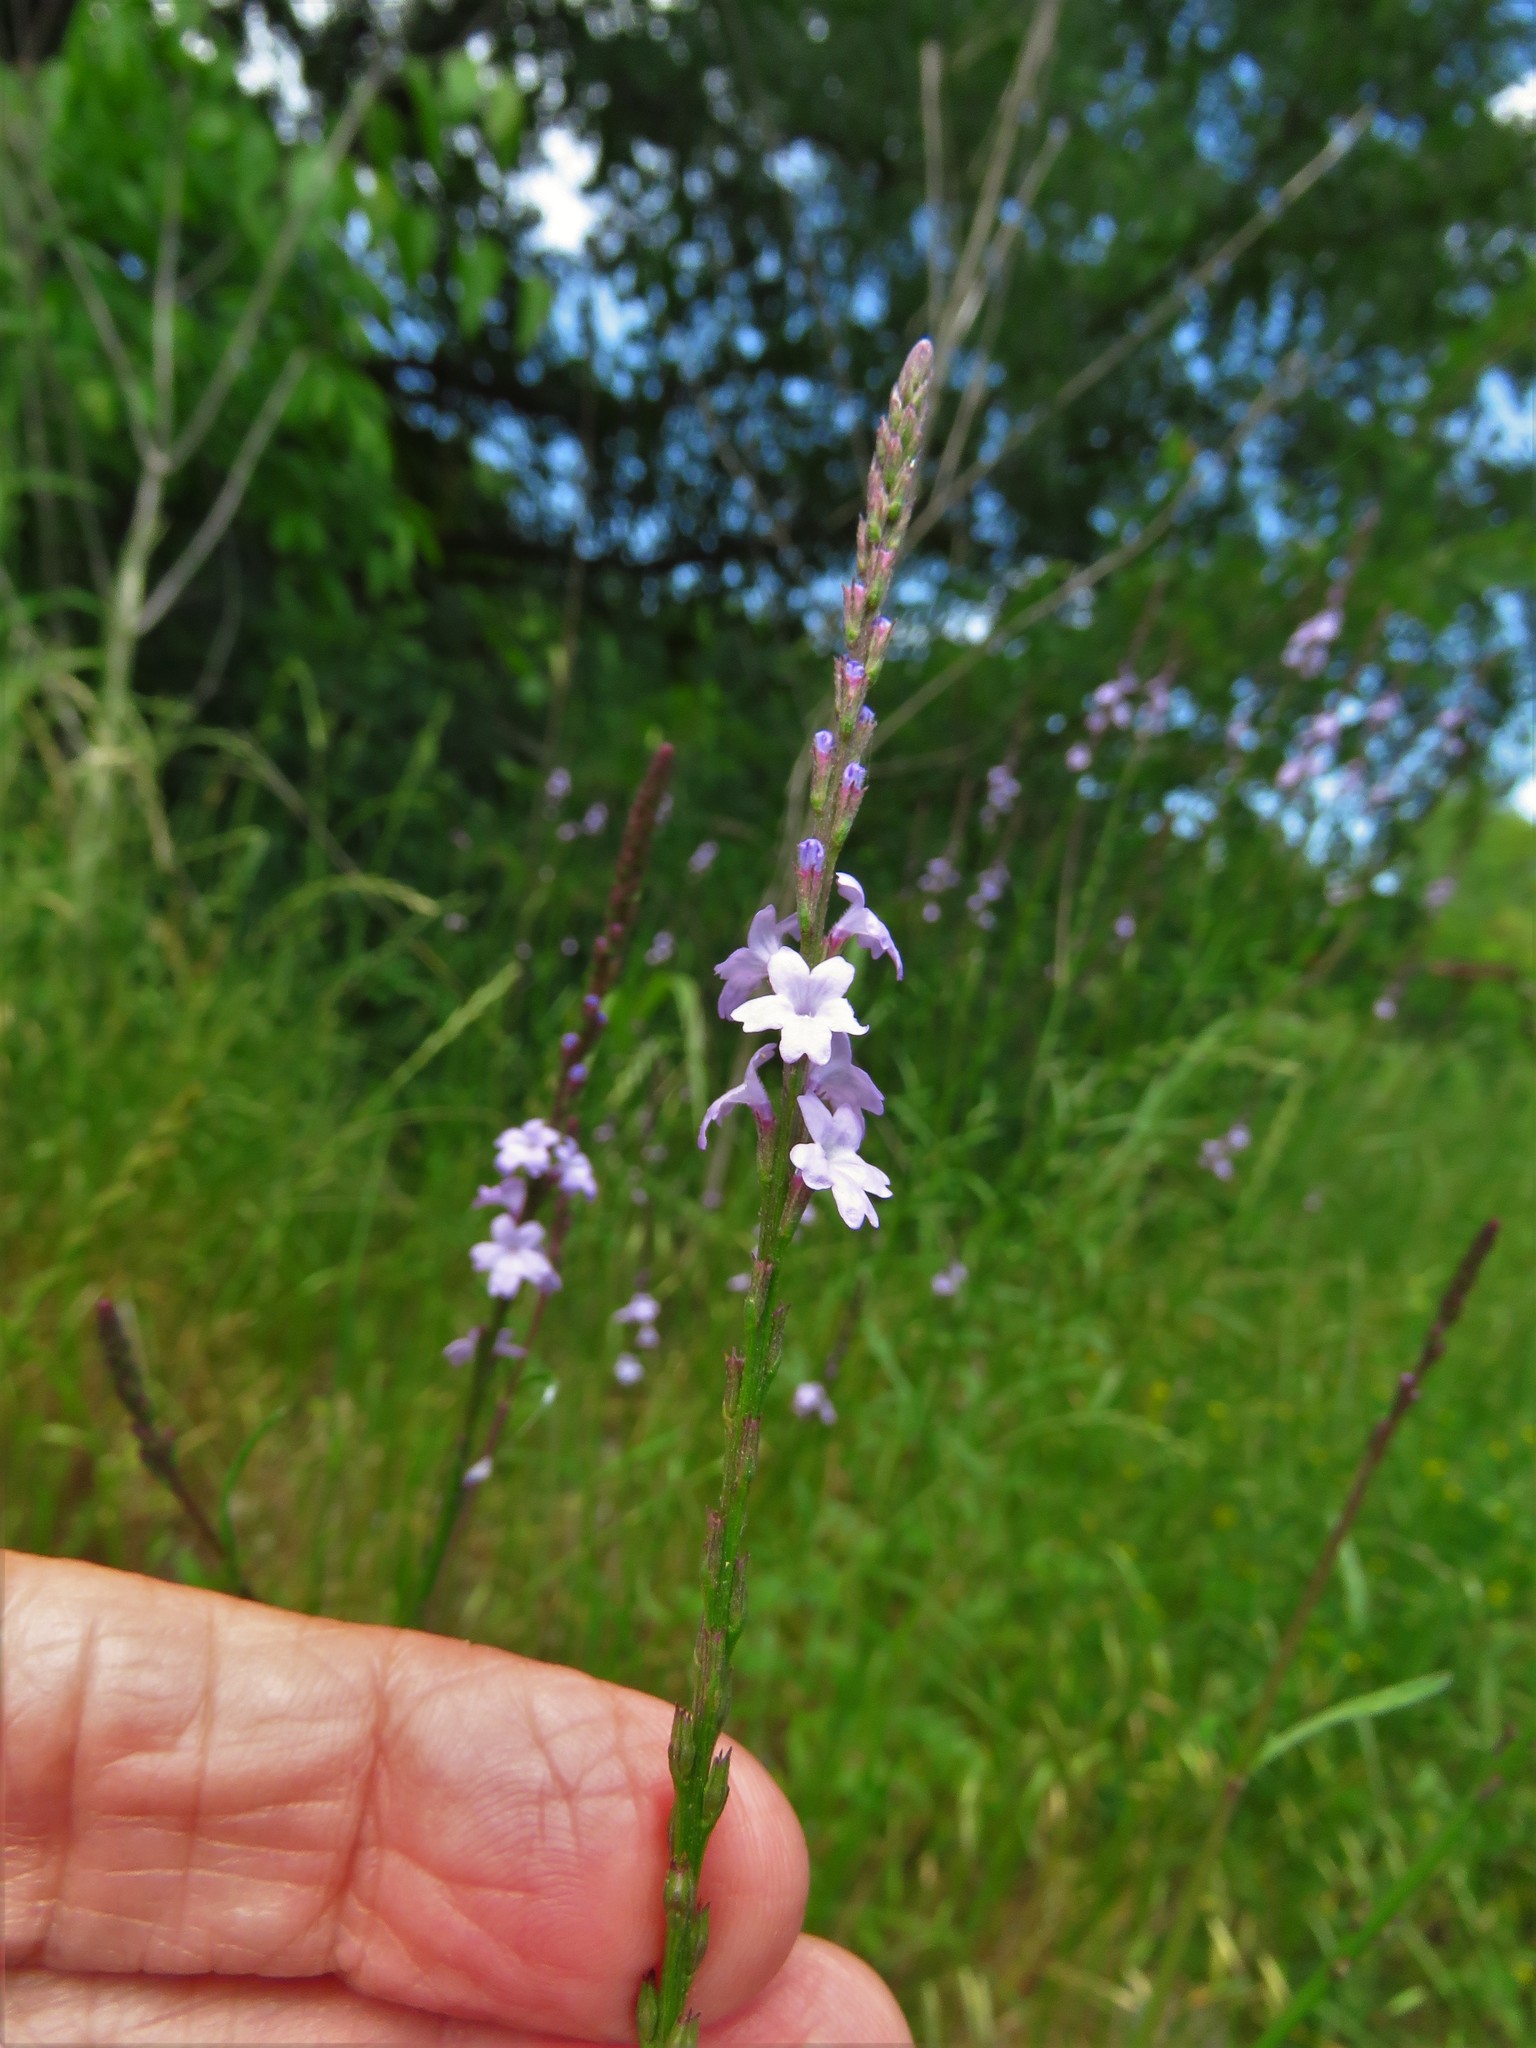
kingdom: Plantae
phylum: Tracheophyta
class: Magnoliopsida
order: Lamiales
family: Verbenaceae
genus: Verbena
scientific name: Verbena halei
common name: Texas vervain
